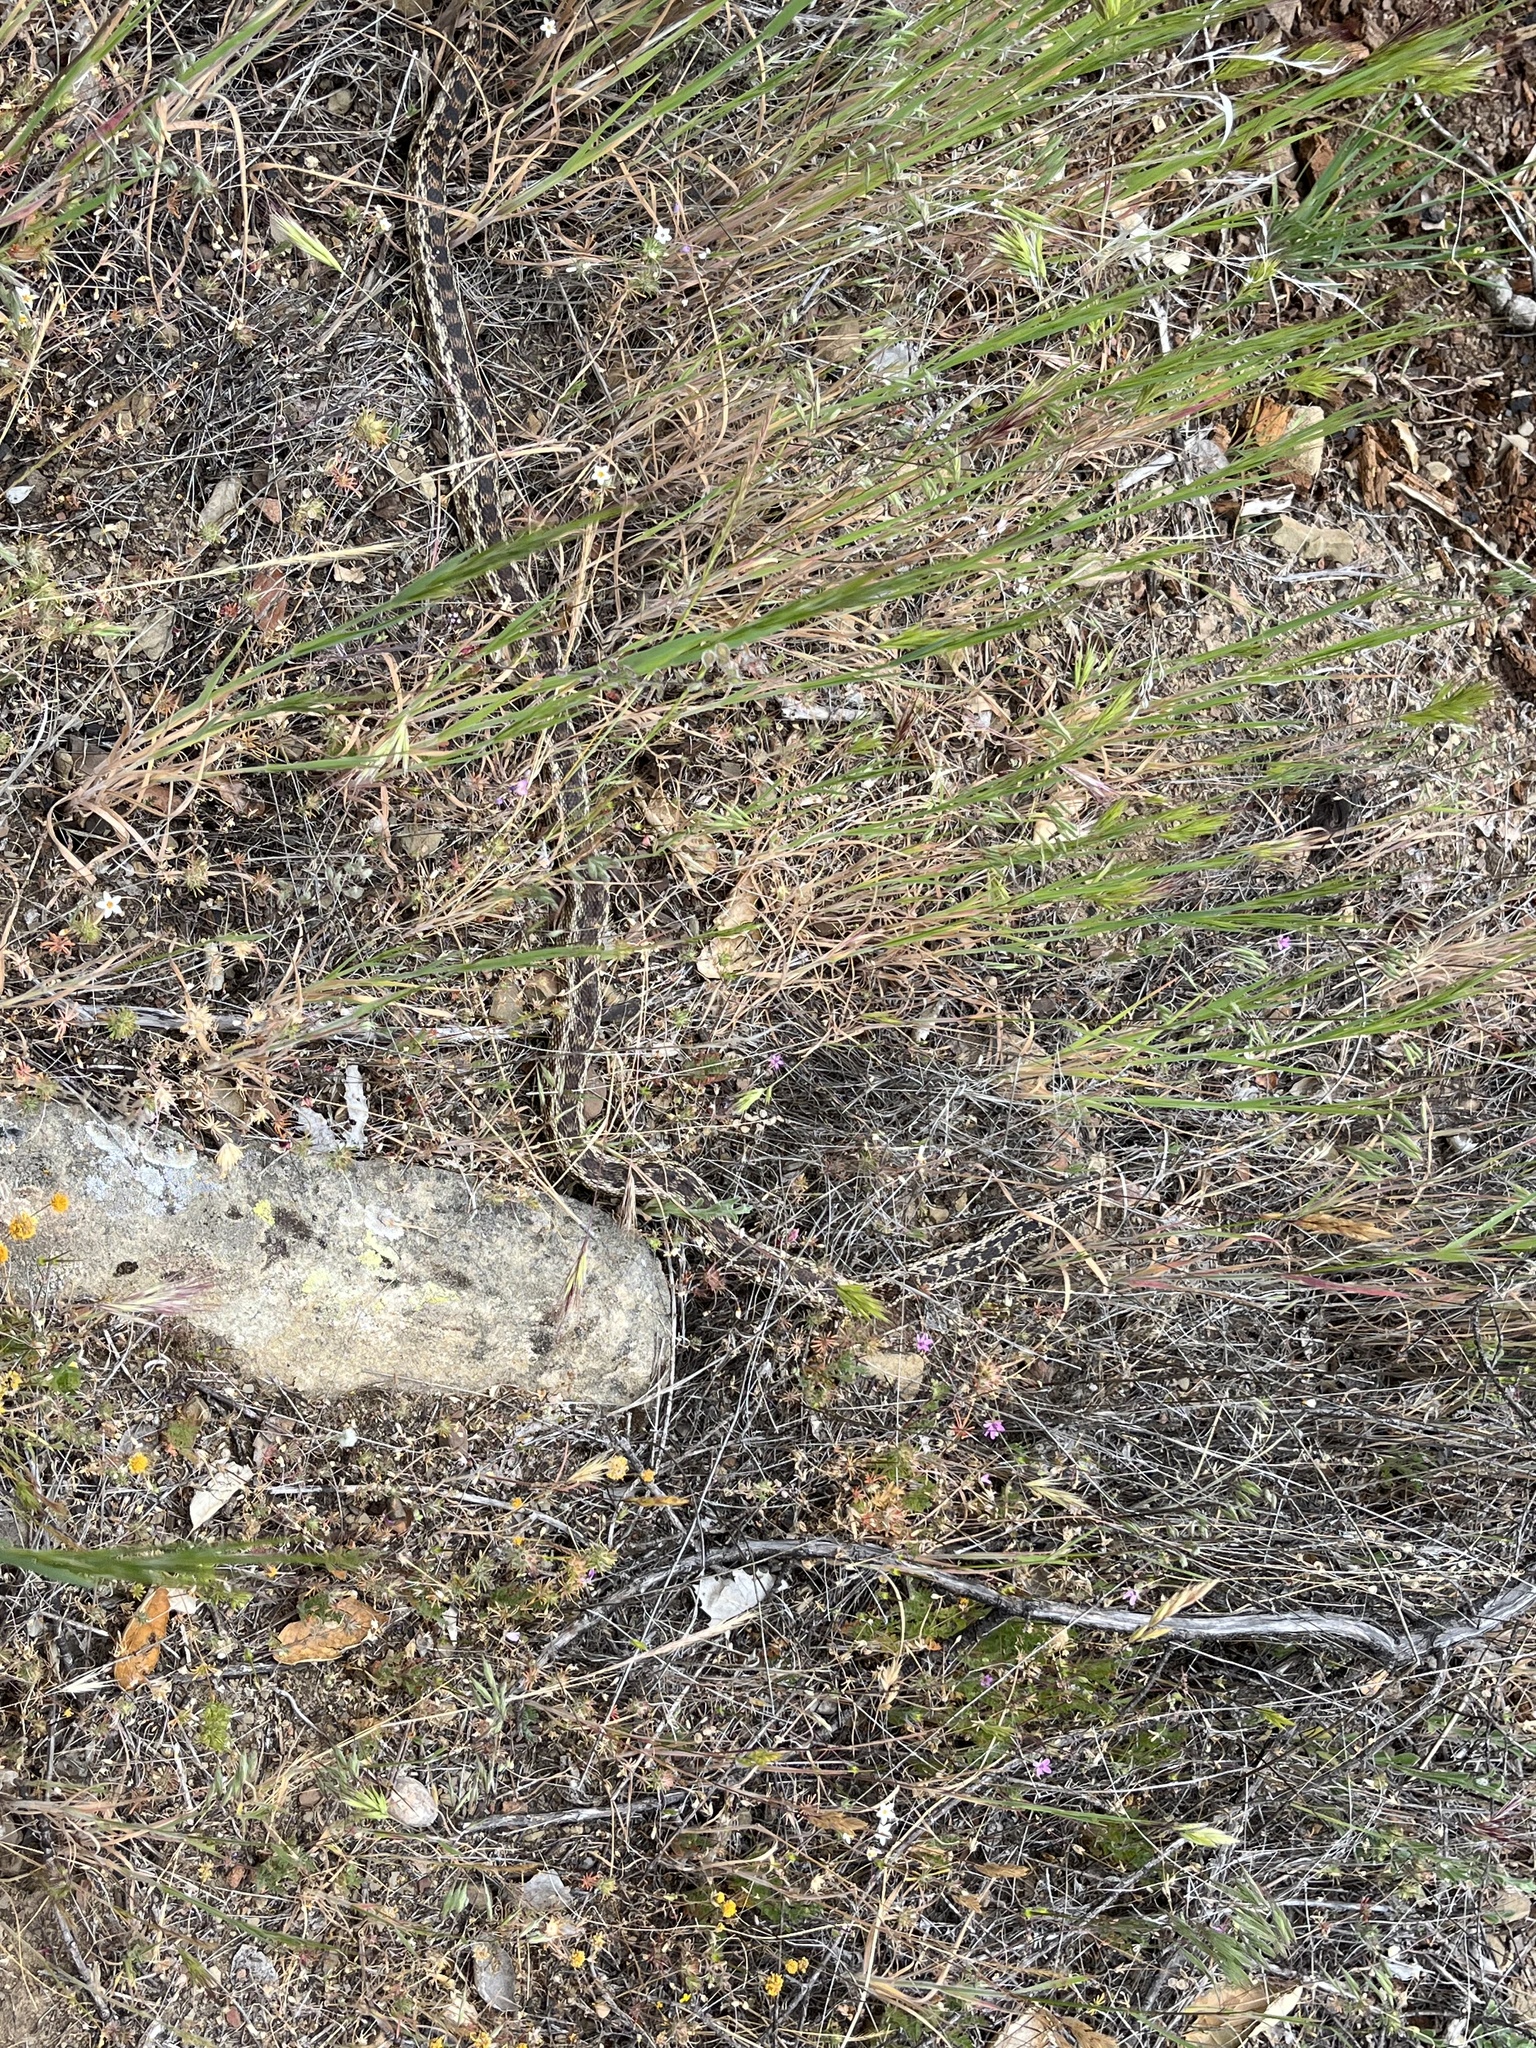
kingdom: Animalia
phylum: Chordata
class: Squamata
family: Colubridae
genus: Pituophis
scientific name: Pituophis catenifer
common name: Gopher snake
